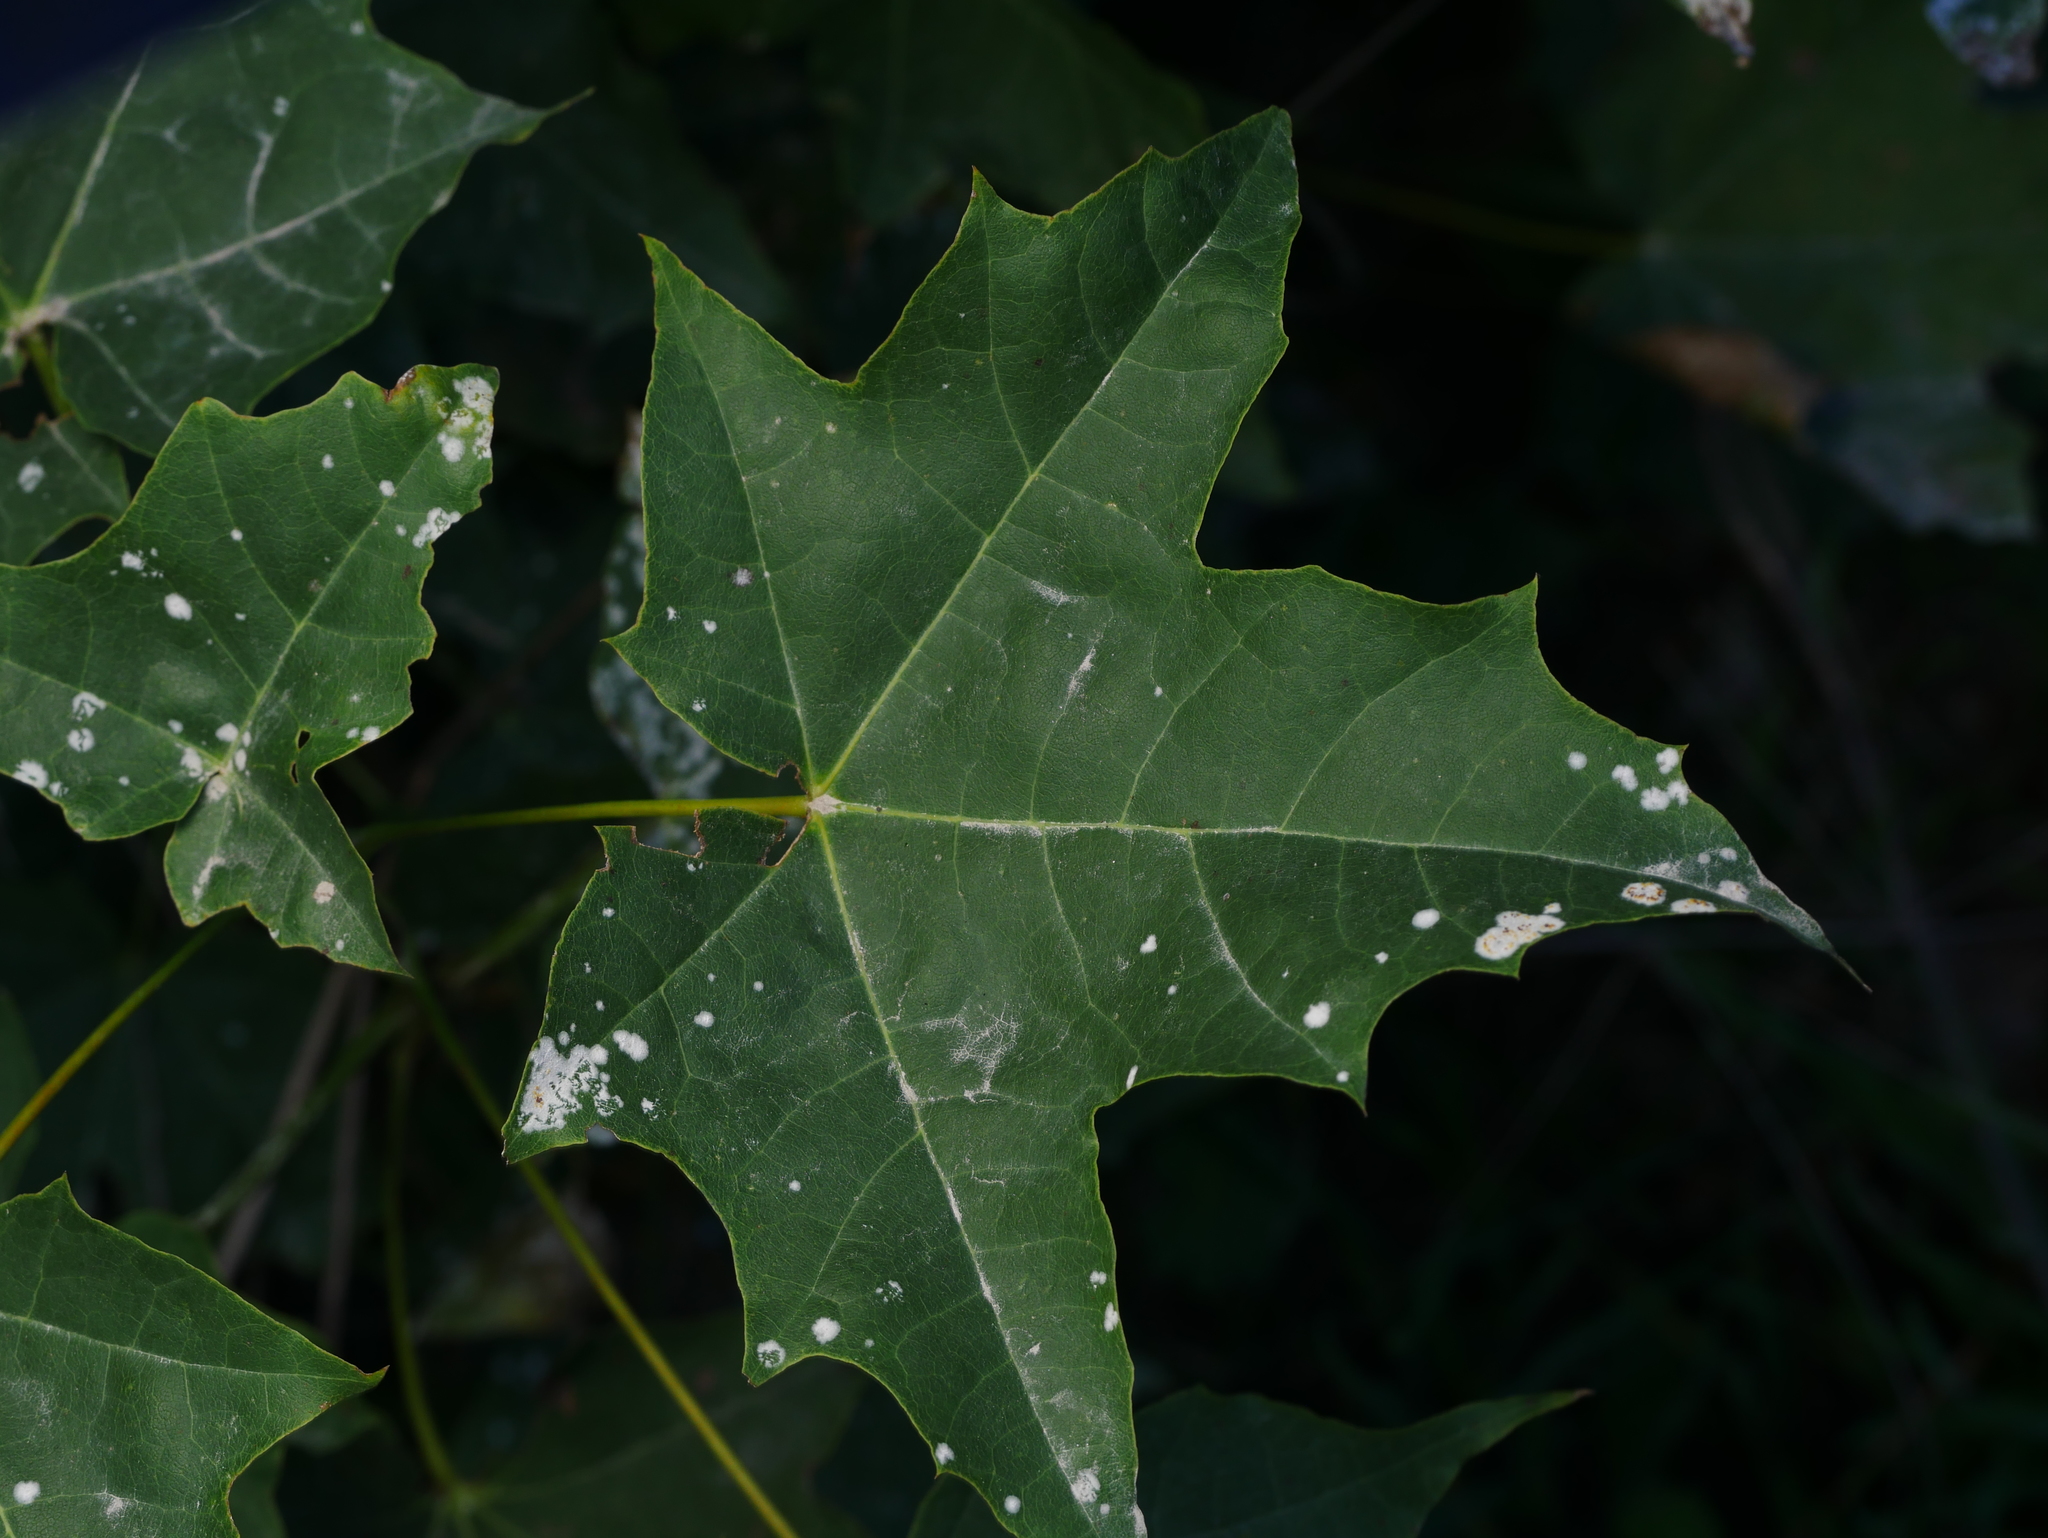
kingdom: Plantae
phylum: Tracheophyta
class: Magnoliopsida
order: Sapindales
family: Sapindaceae
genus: Acer
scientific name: Acer platanoides
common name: Norway maple
